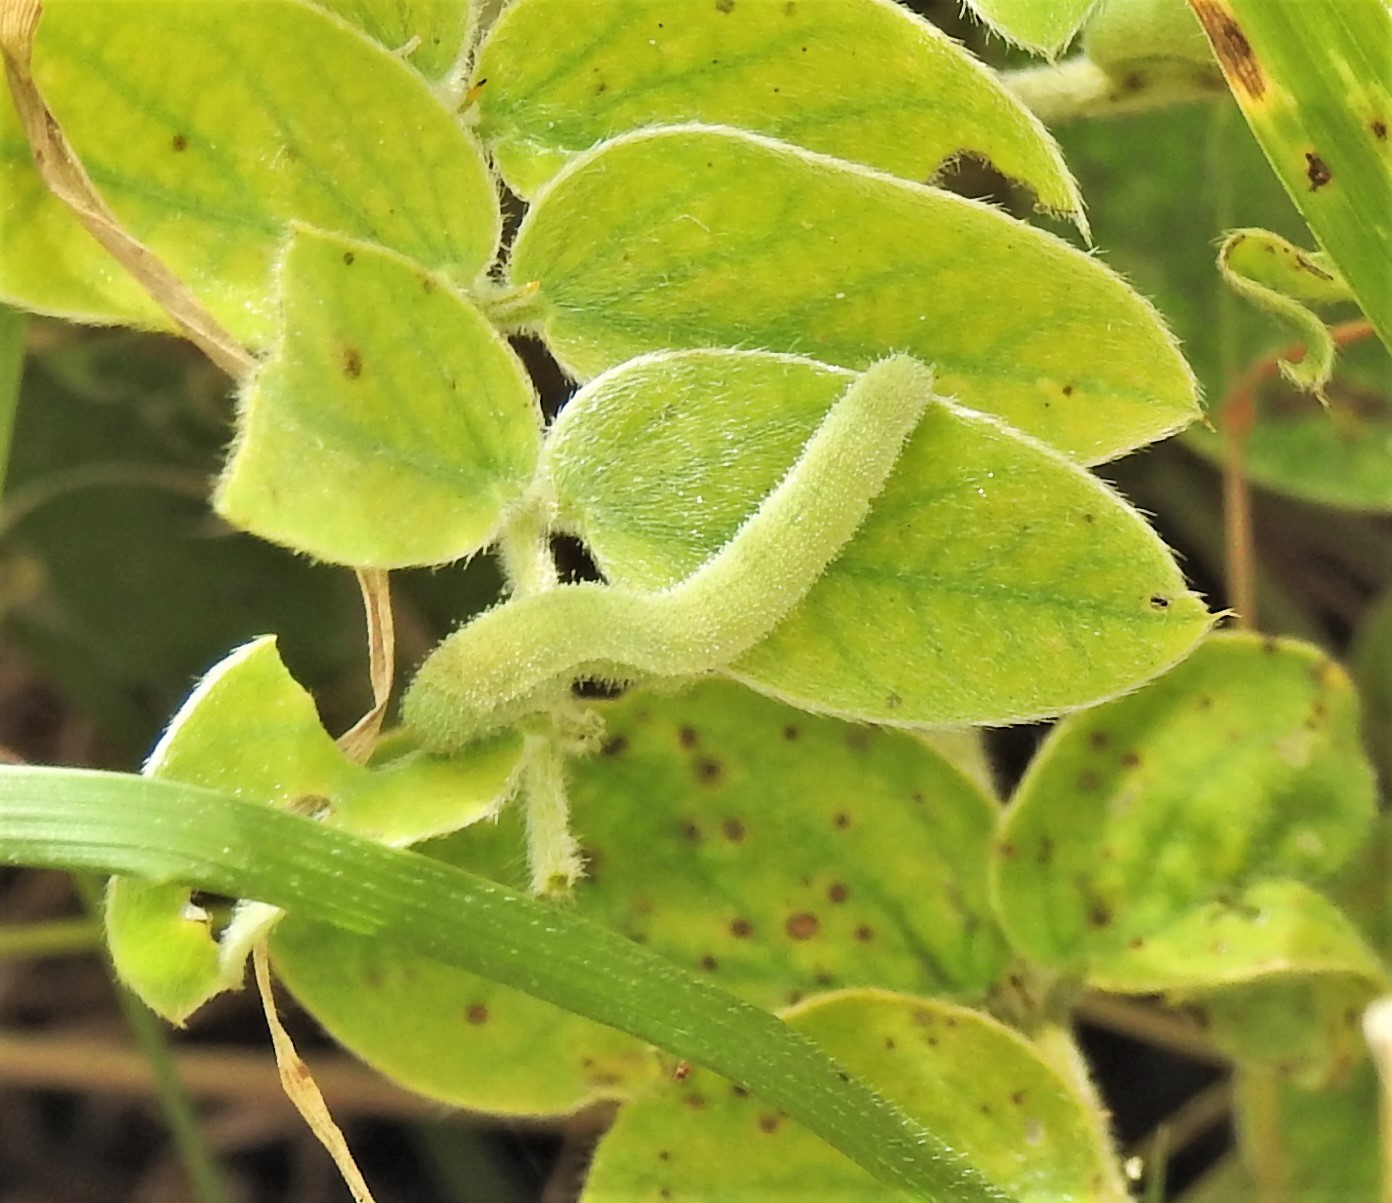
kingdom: Animalia
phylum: Arthropoda
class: Insecta
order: Lepidoptera
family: Pieridae
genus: Abaeis
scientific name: Abaeis nicippe
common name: Sleepy orange
